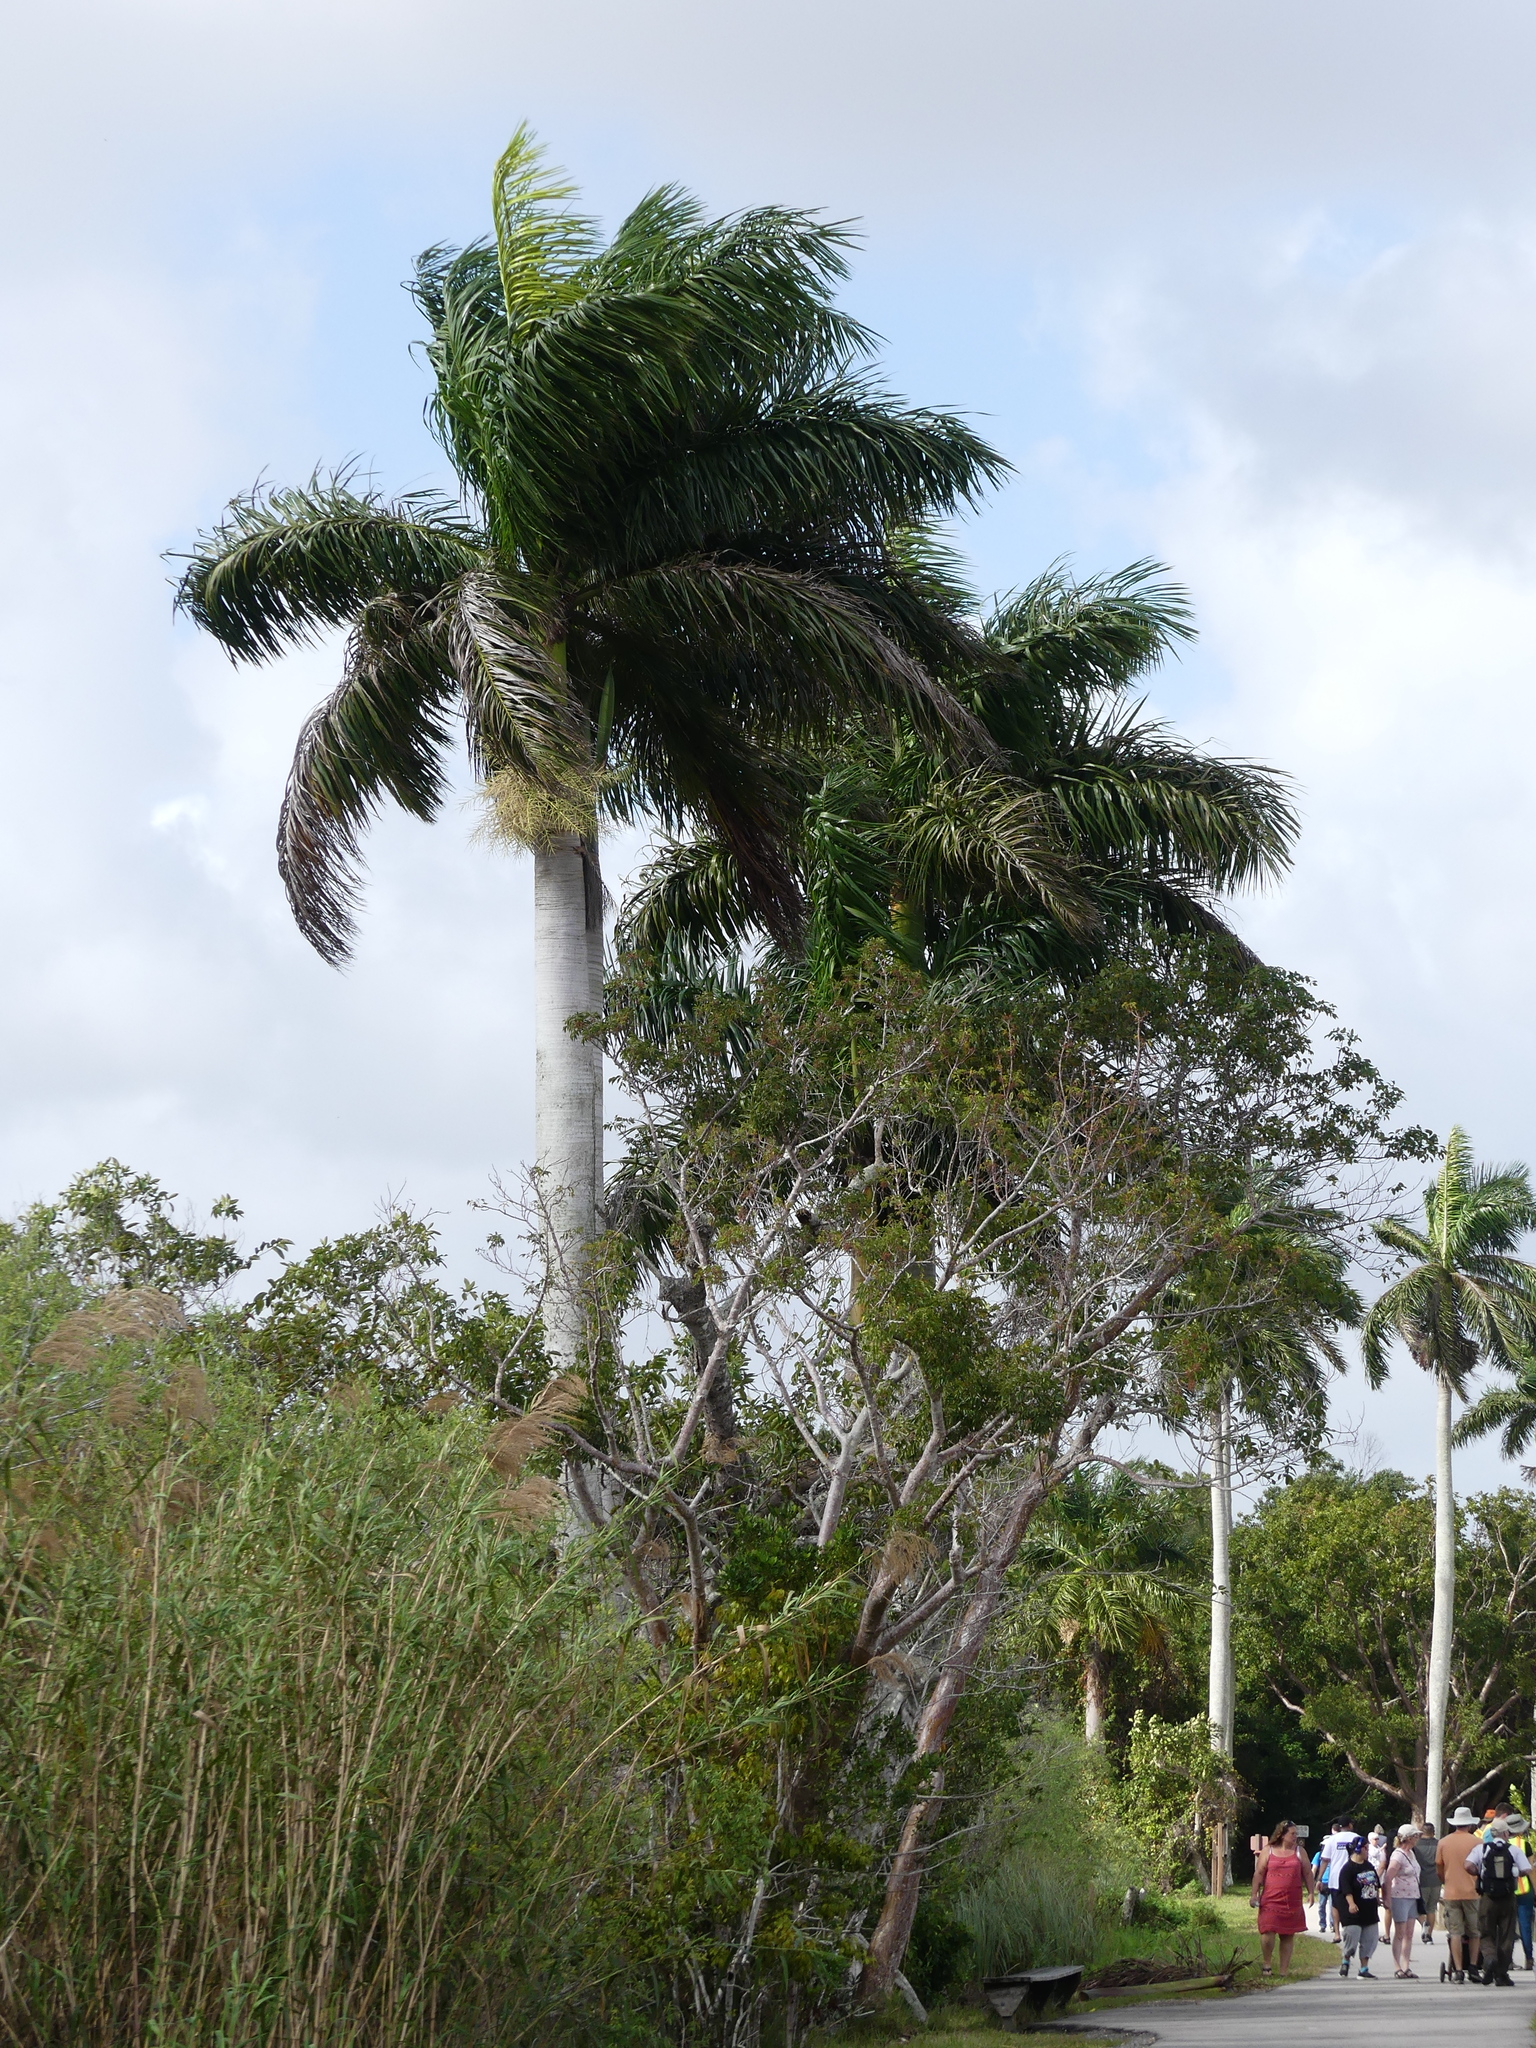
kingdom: Plantae
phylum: Tracheophyta
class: Liliopsida
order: Arecales
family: Arecaceae
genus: Roystonea
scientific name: Roystonea regia
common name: Florida royal palm
